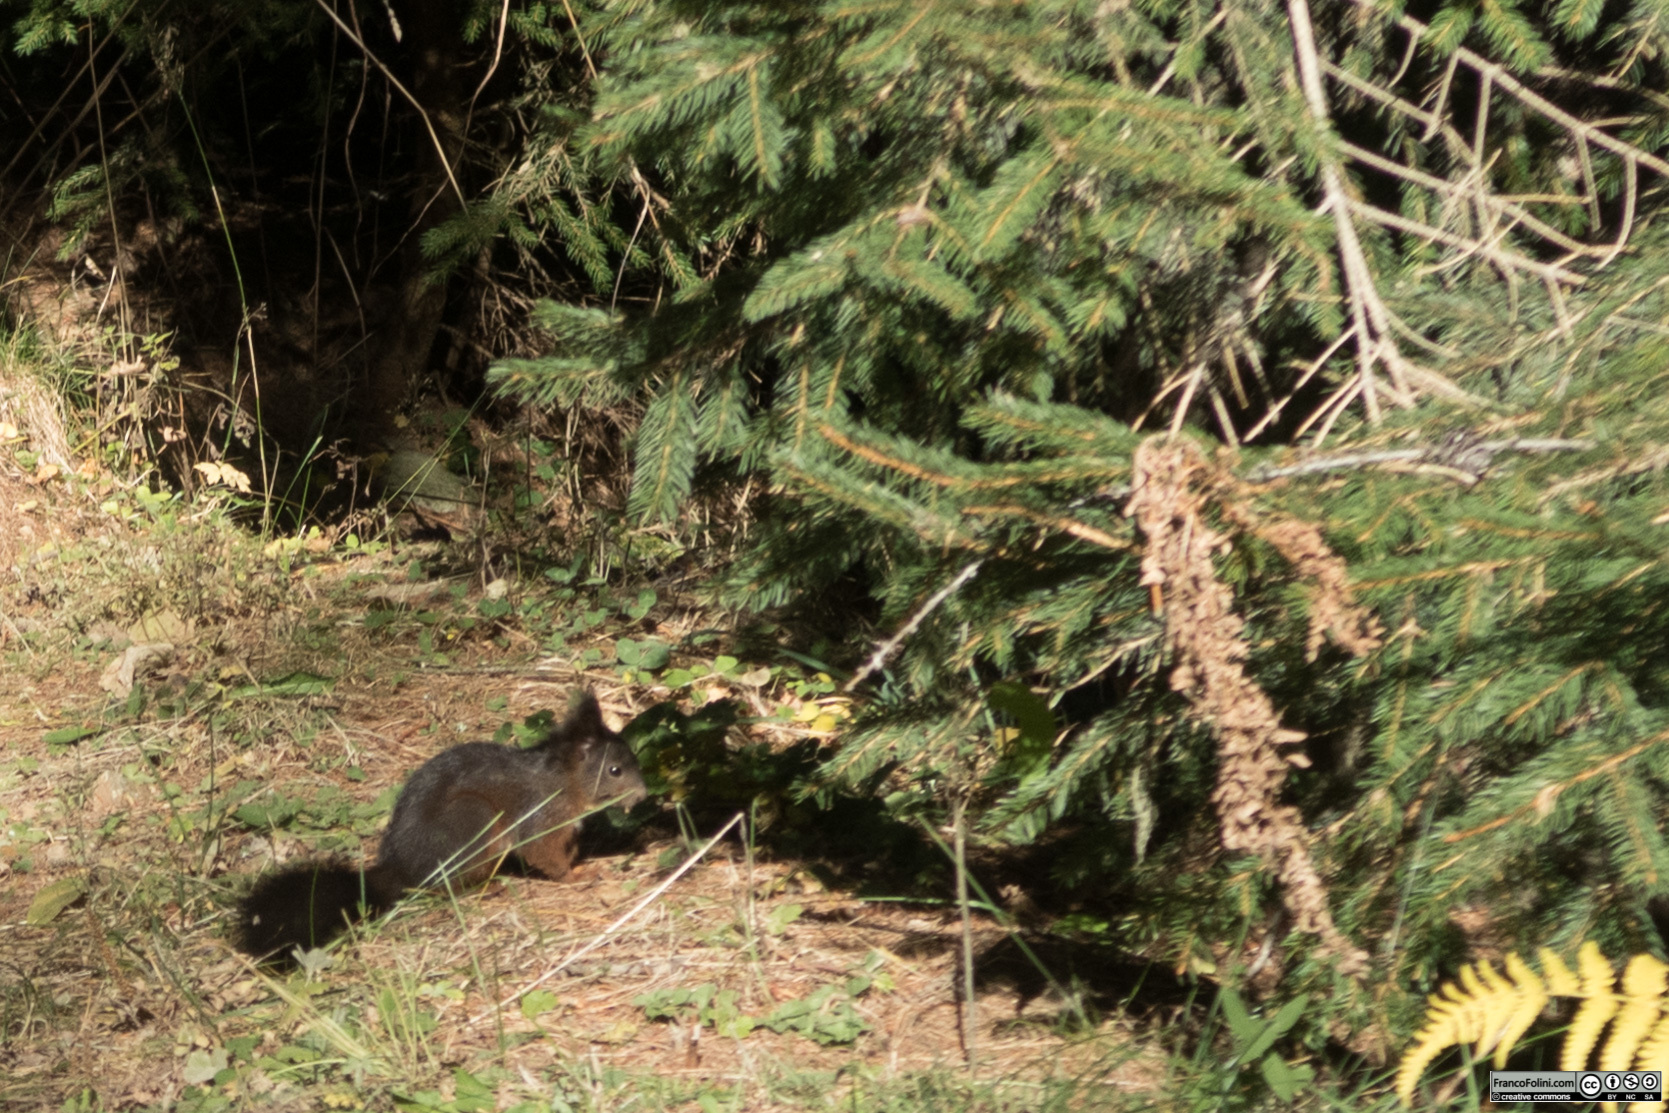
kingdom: Animalia
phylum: Chordata
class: Mammalia
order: Rodentia
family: Sciuridae
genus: Sciurus
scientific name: Sciurus vulgaris
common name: Eurasian red squirrel
